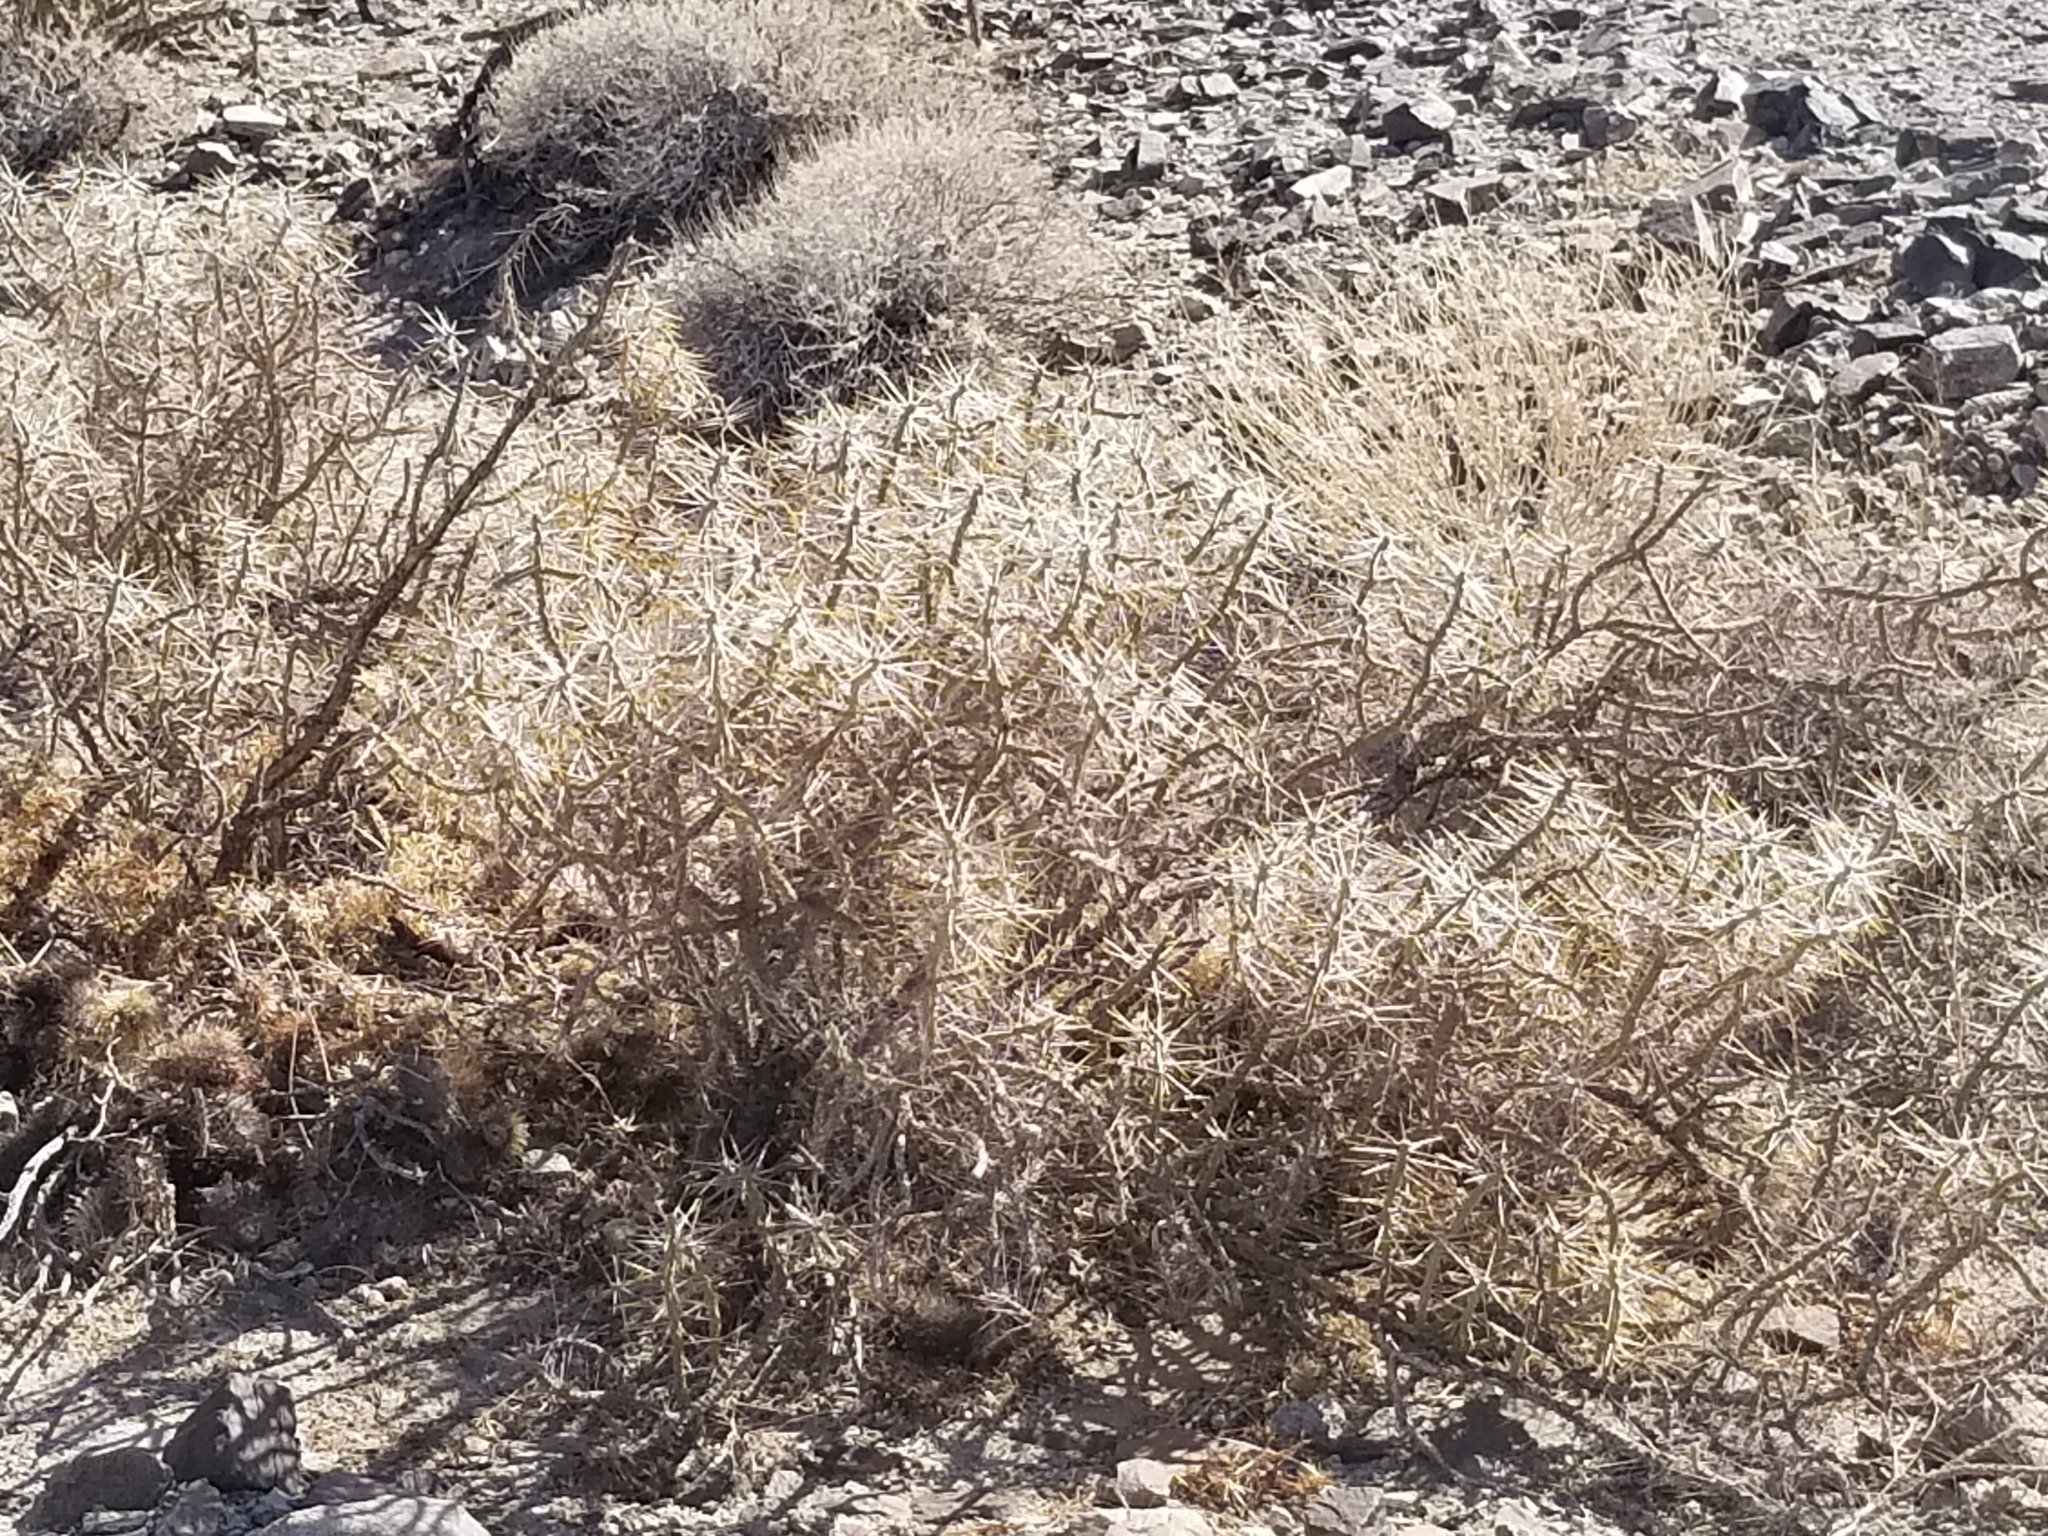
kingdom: Plantae
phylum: Tracheophyta
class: Magnoliopsida
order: Caryophyllales
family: Cactaceae
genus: Cylindropuntia
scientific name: Cylindropuntia ramosissima
